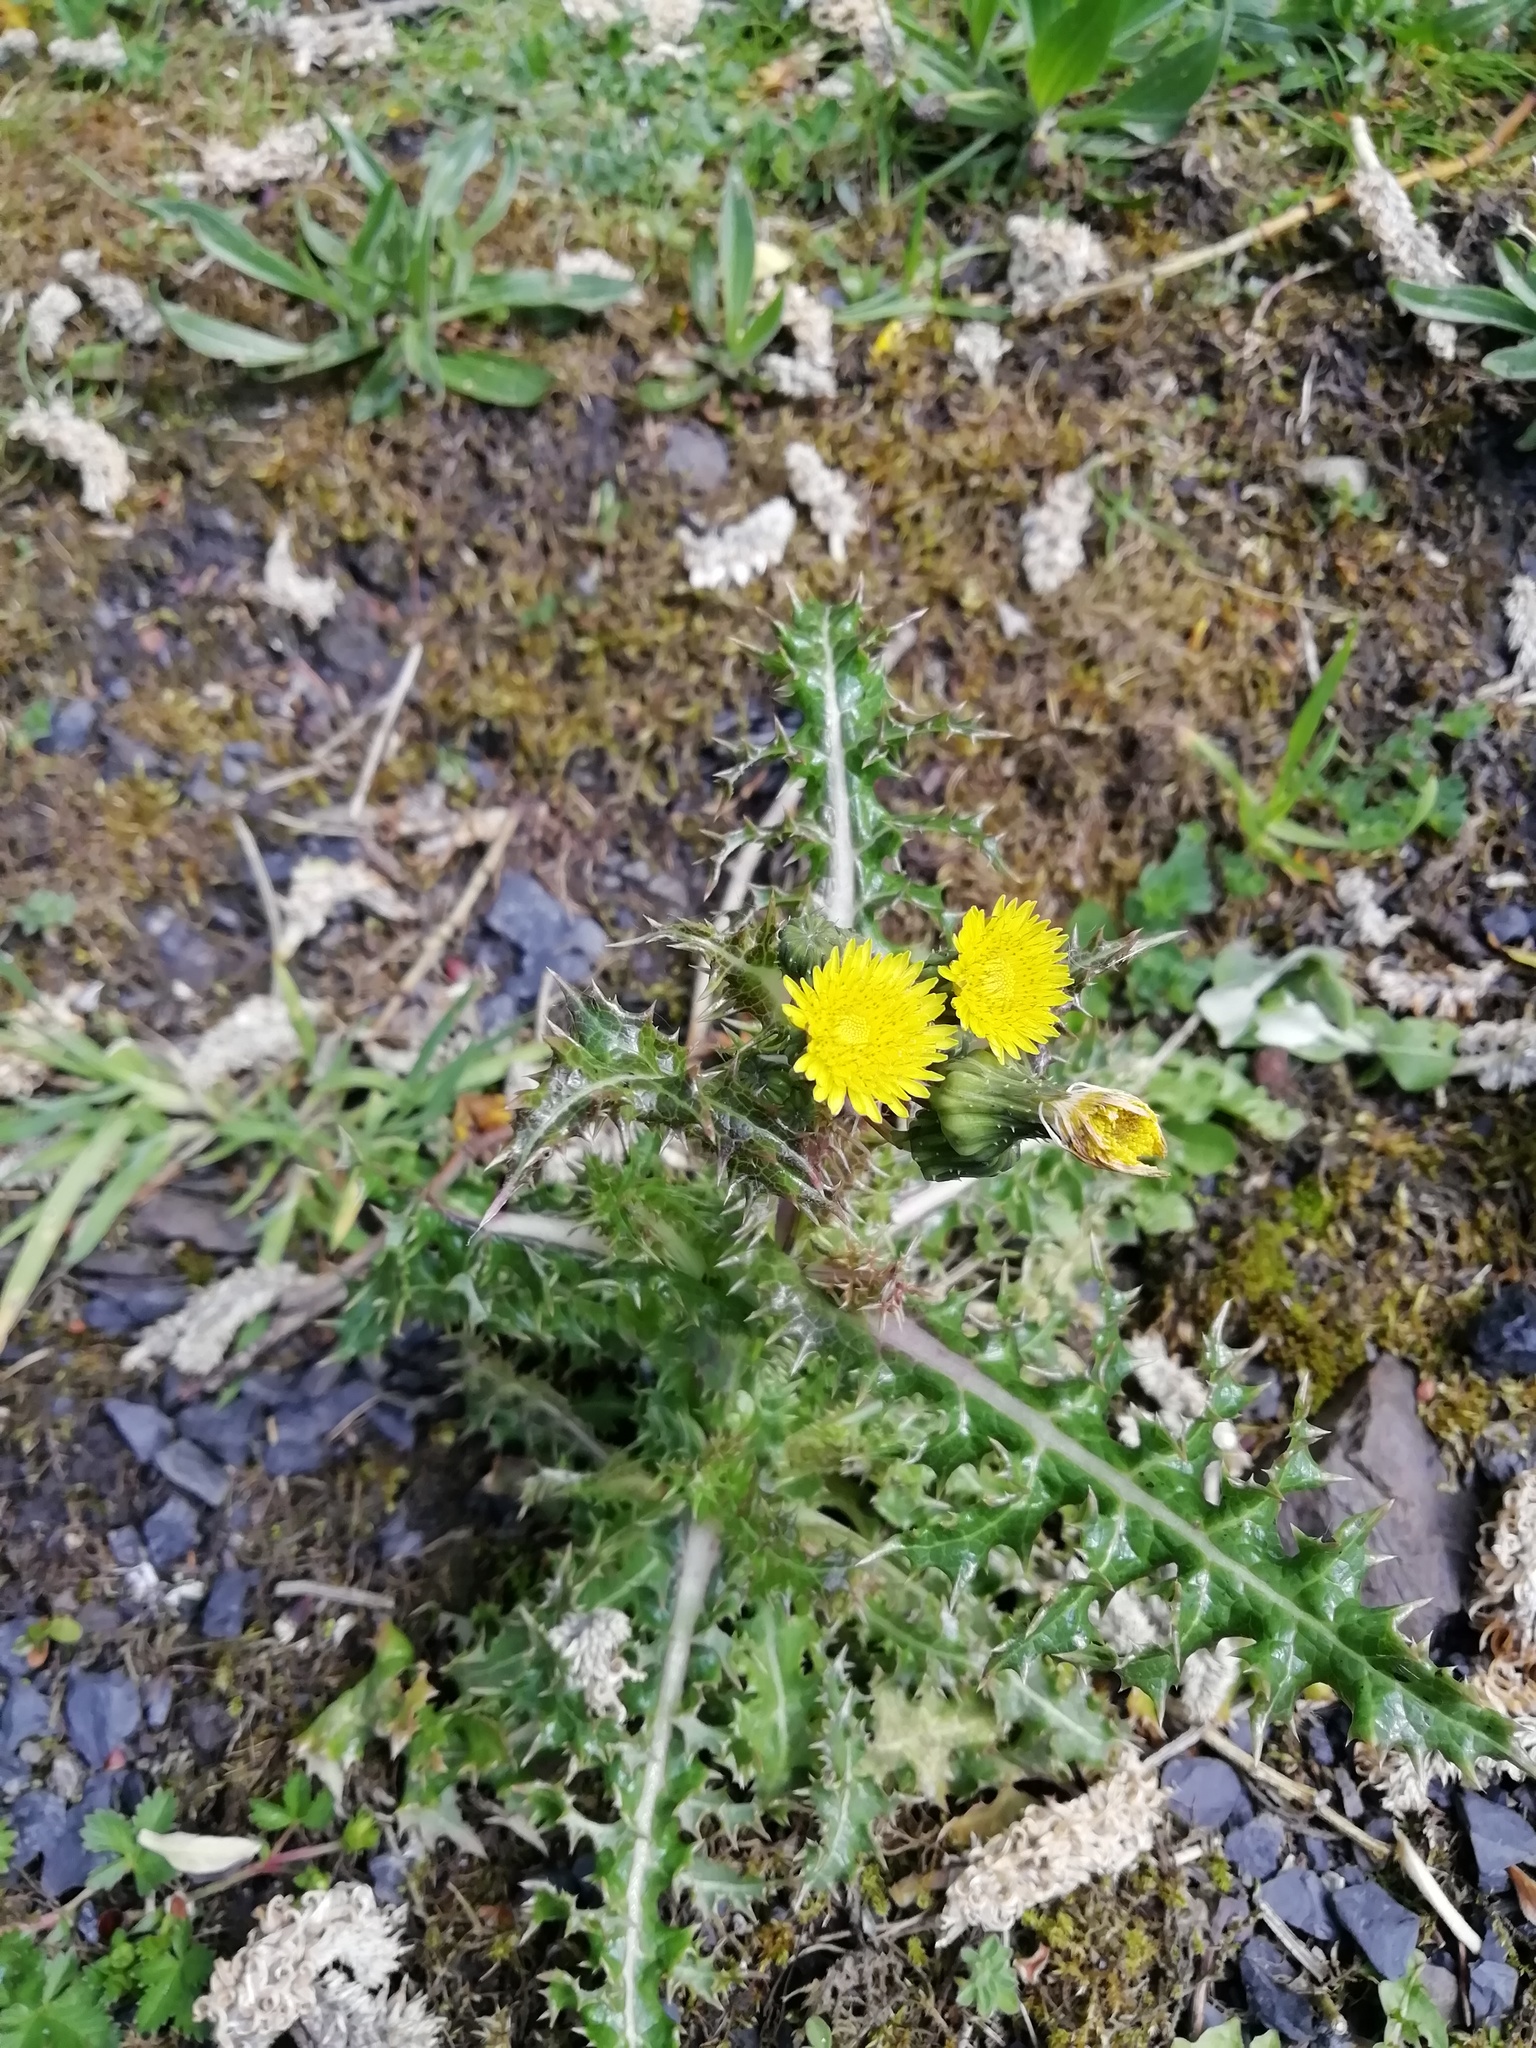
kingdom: Plantae
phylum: Tracheophyta
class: Magnoliopsida
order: Asterales
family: Asteraceae
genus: Sonchus
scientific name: Sonchus asper
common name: Prickly sow-thistle
